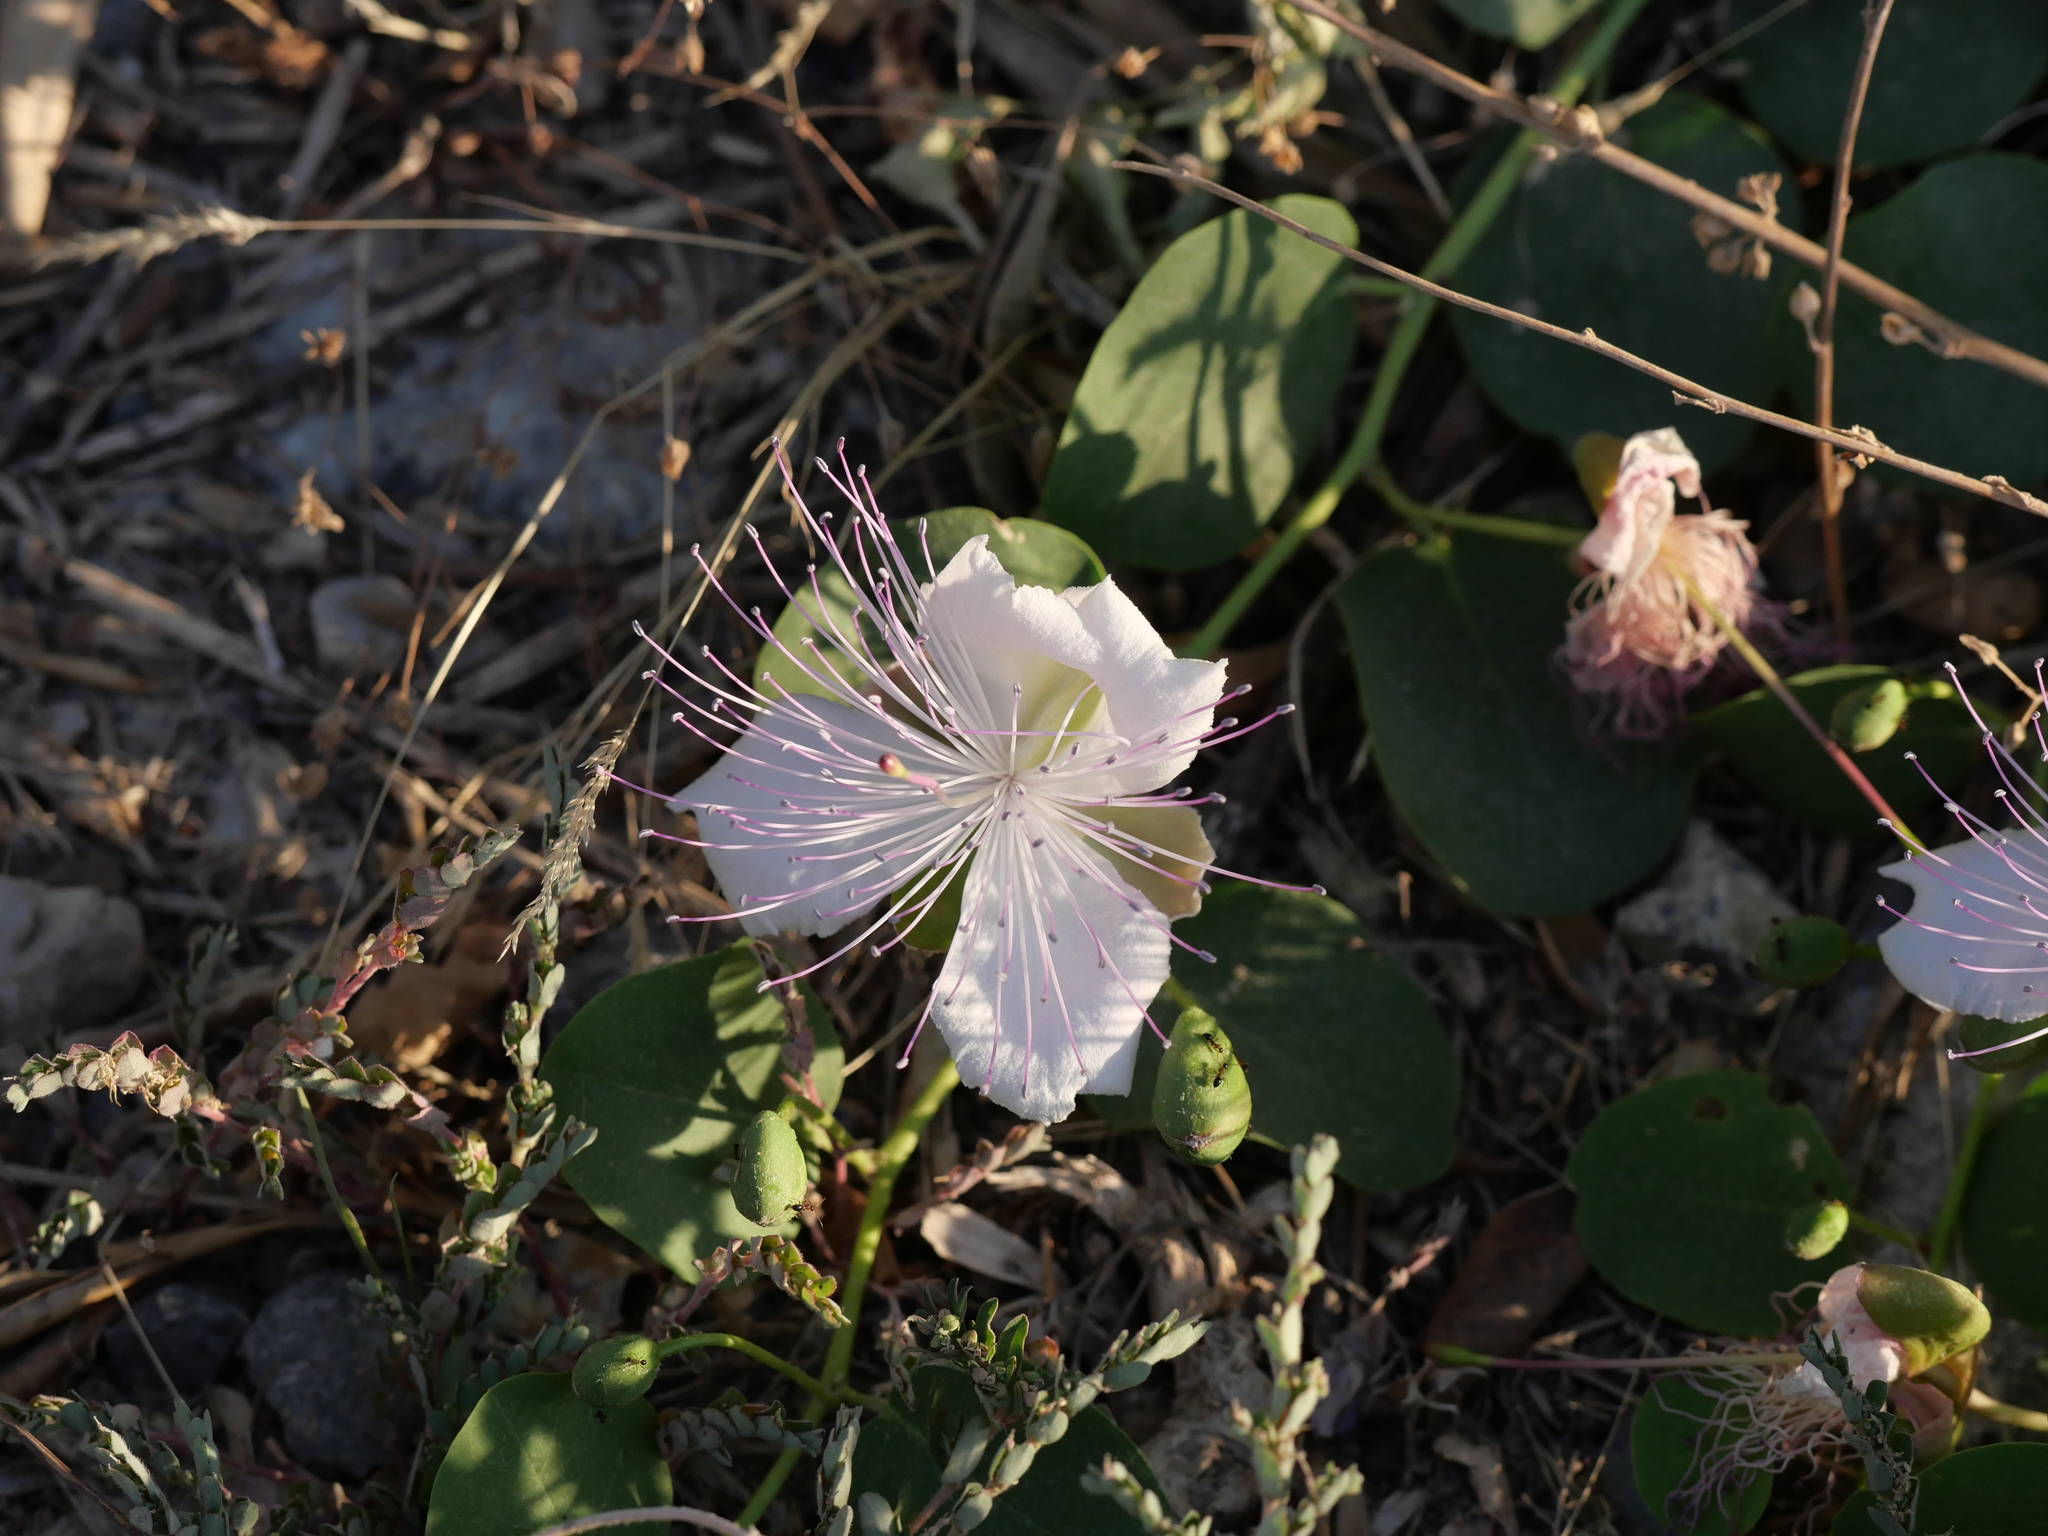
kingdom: Plantae
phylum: Tracheophyta
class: Magnoliopsida
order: Brassicales
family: Capparaceae
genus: Capparis
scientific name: Capparis orientalis
